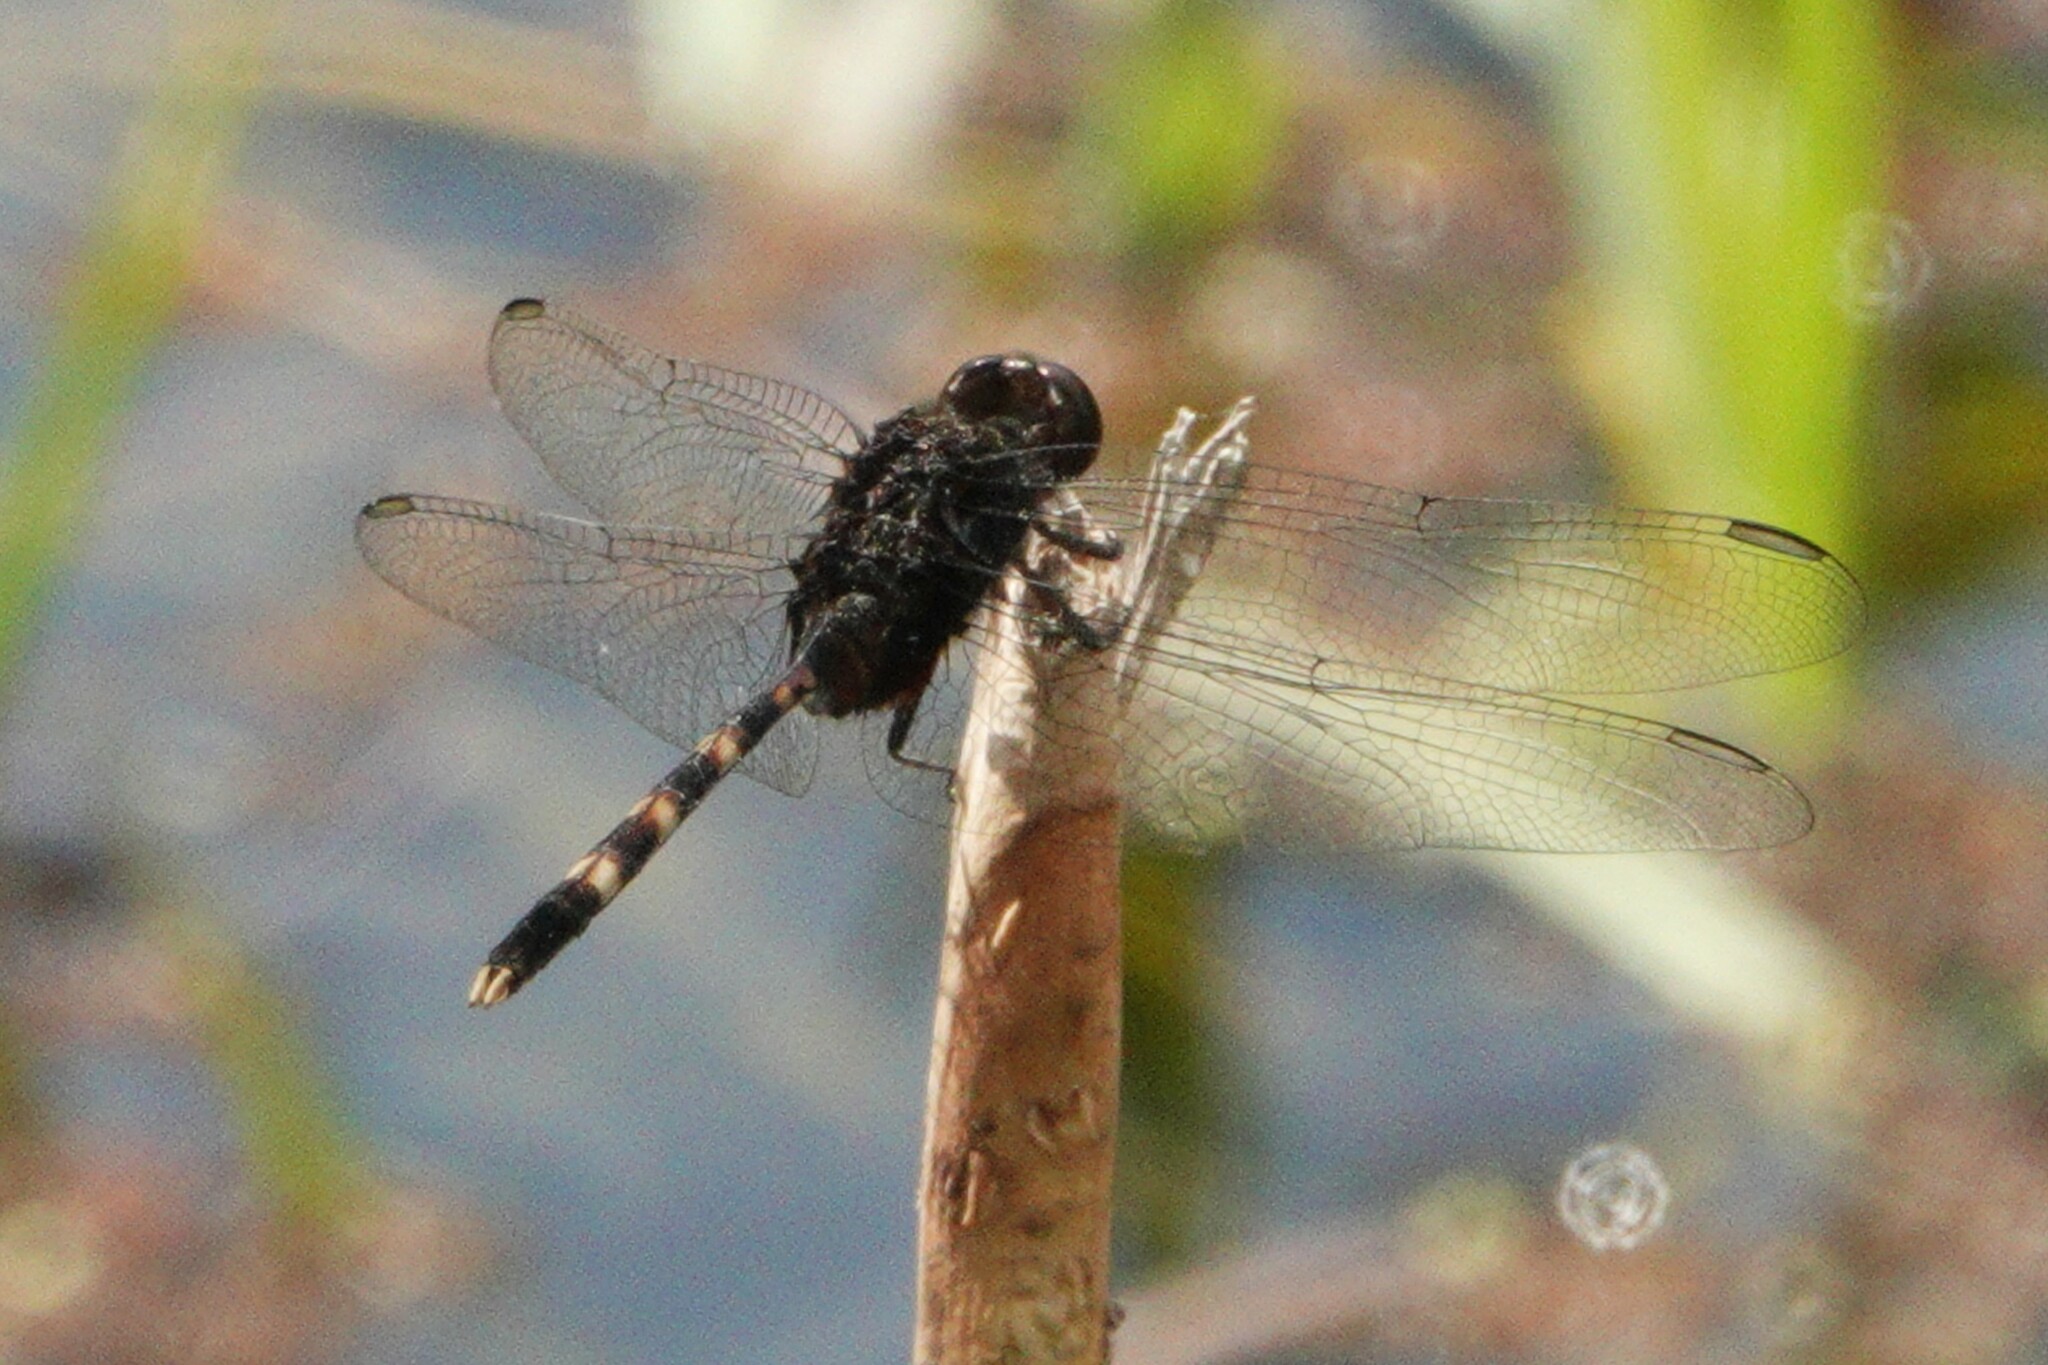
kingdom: Animalia
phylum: Arthropoda
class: Insecta
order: Odonata
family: Libellulidae
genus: Erythemis
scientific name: Erythemis plebeja
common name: Pin-tailed pondhawk
